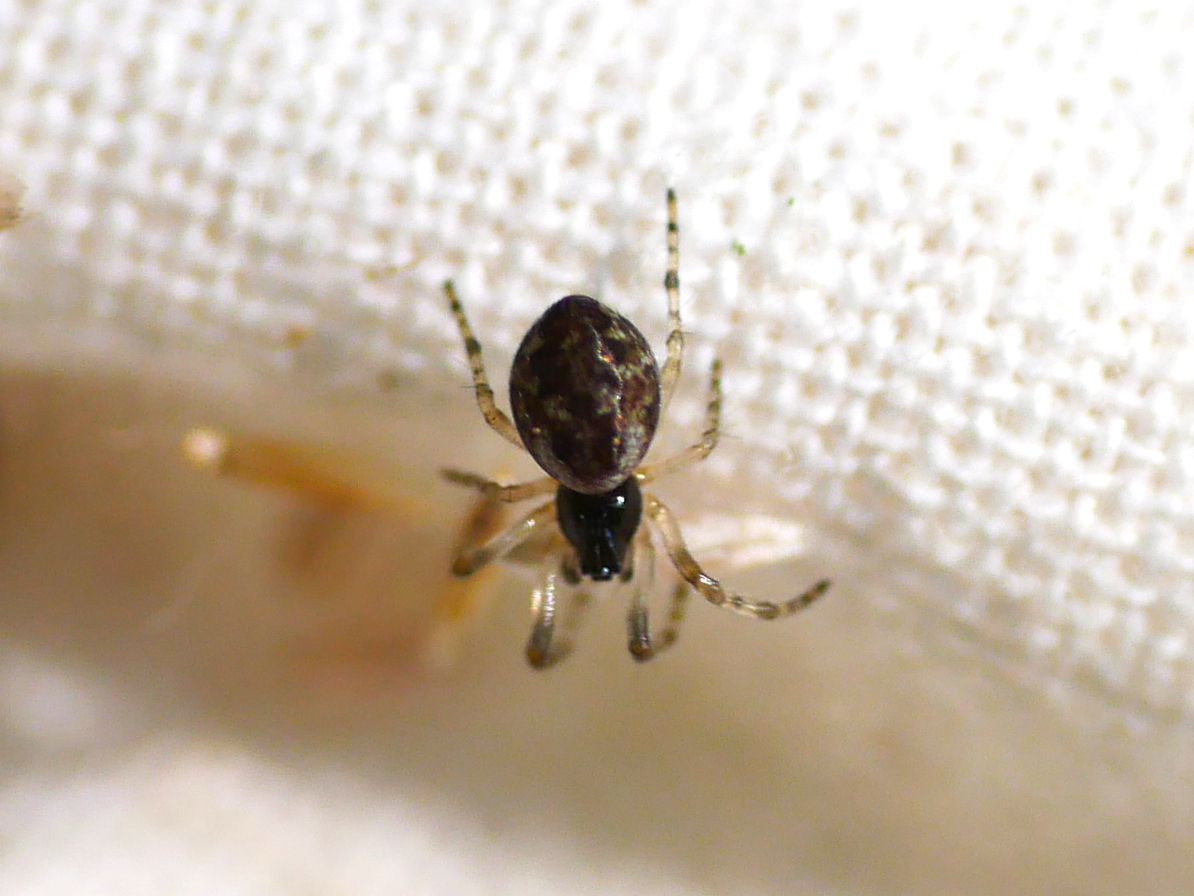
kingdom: Animalia
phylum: Arthropoda
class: Arachnida
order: Araneae
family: Araneidae
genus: Cyclosa
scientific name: Cyclosa conica
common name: Conical trashline orbweaver
